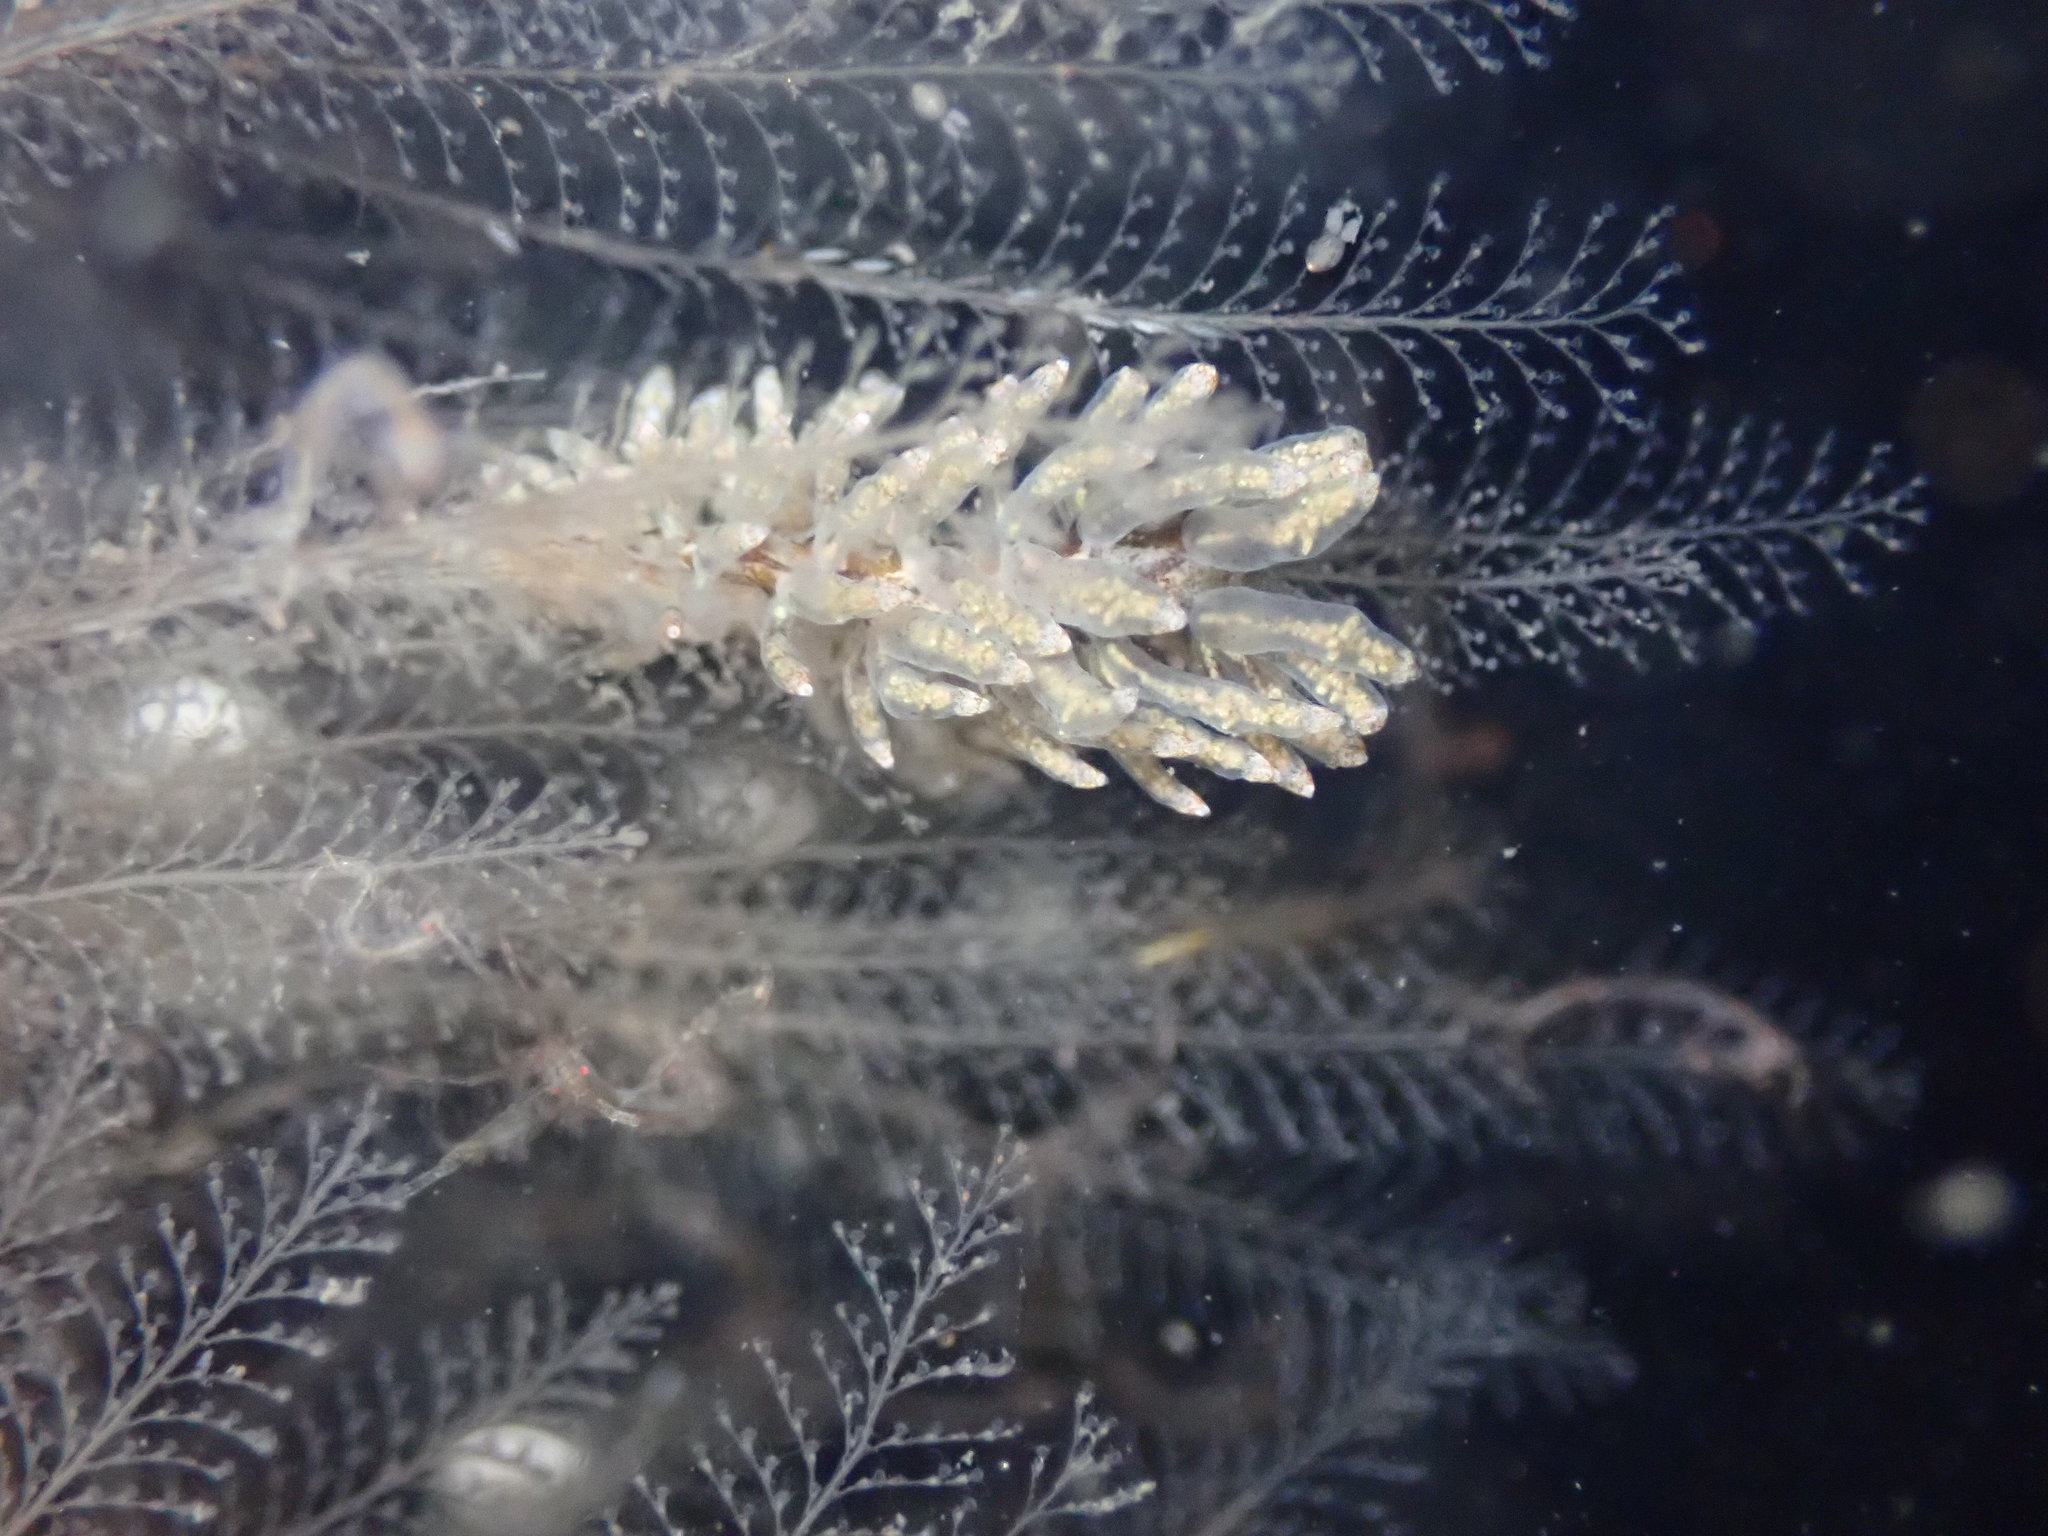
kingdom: Animalia
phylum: Mollusca
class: Gastropoda
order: Nudibranchia
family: Eubranchidae
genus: Eubranchus
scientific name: Eubranchus rustyus
